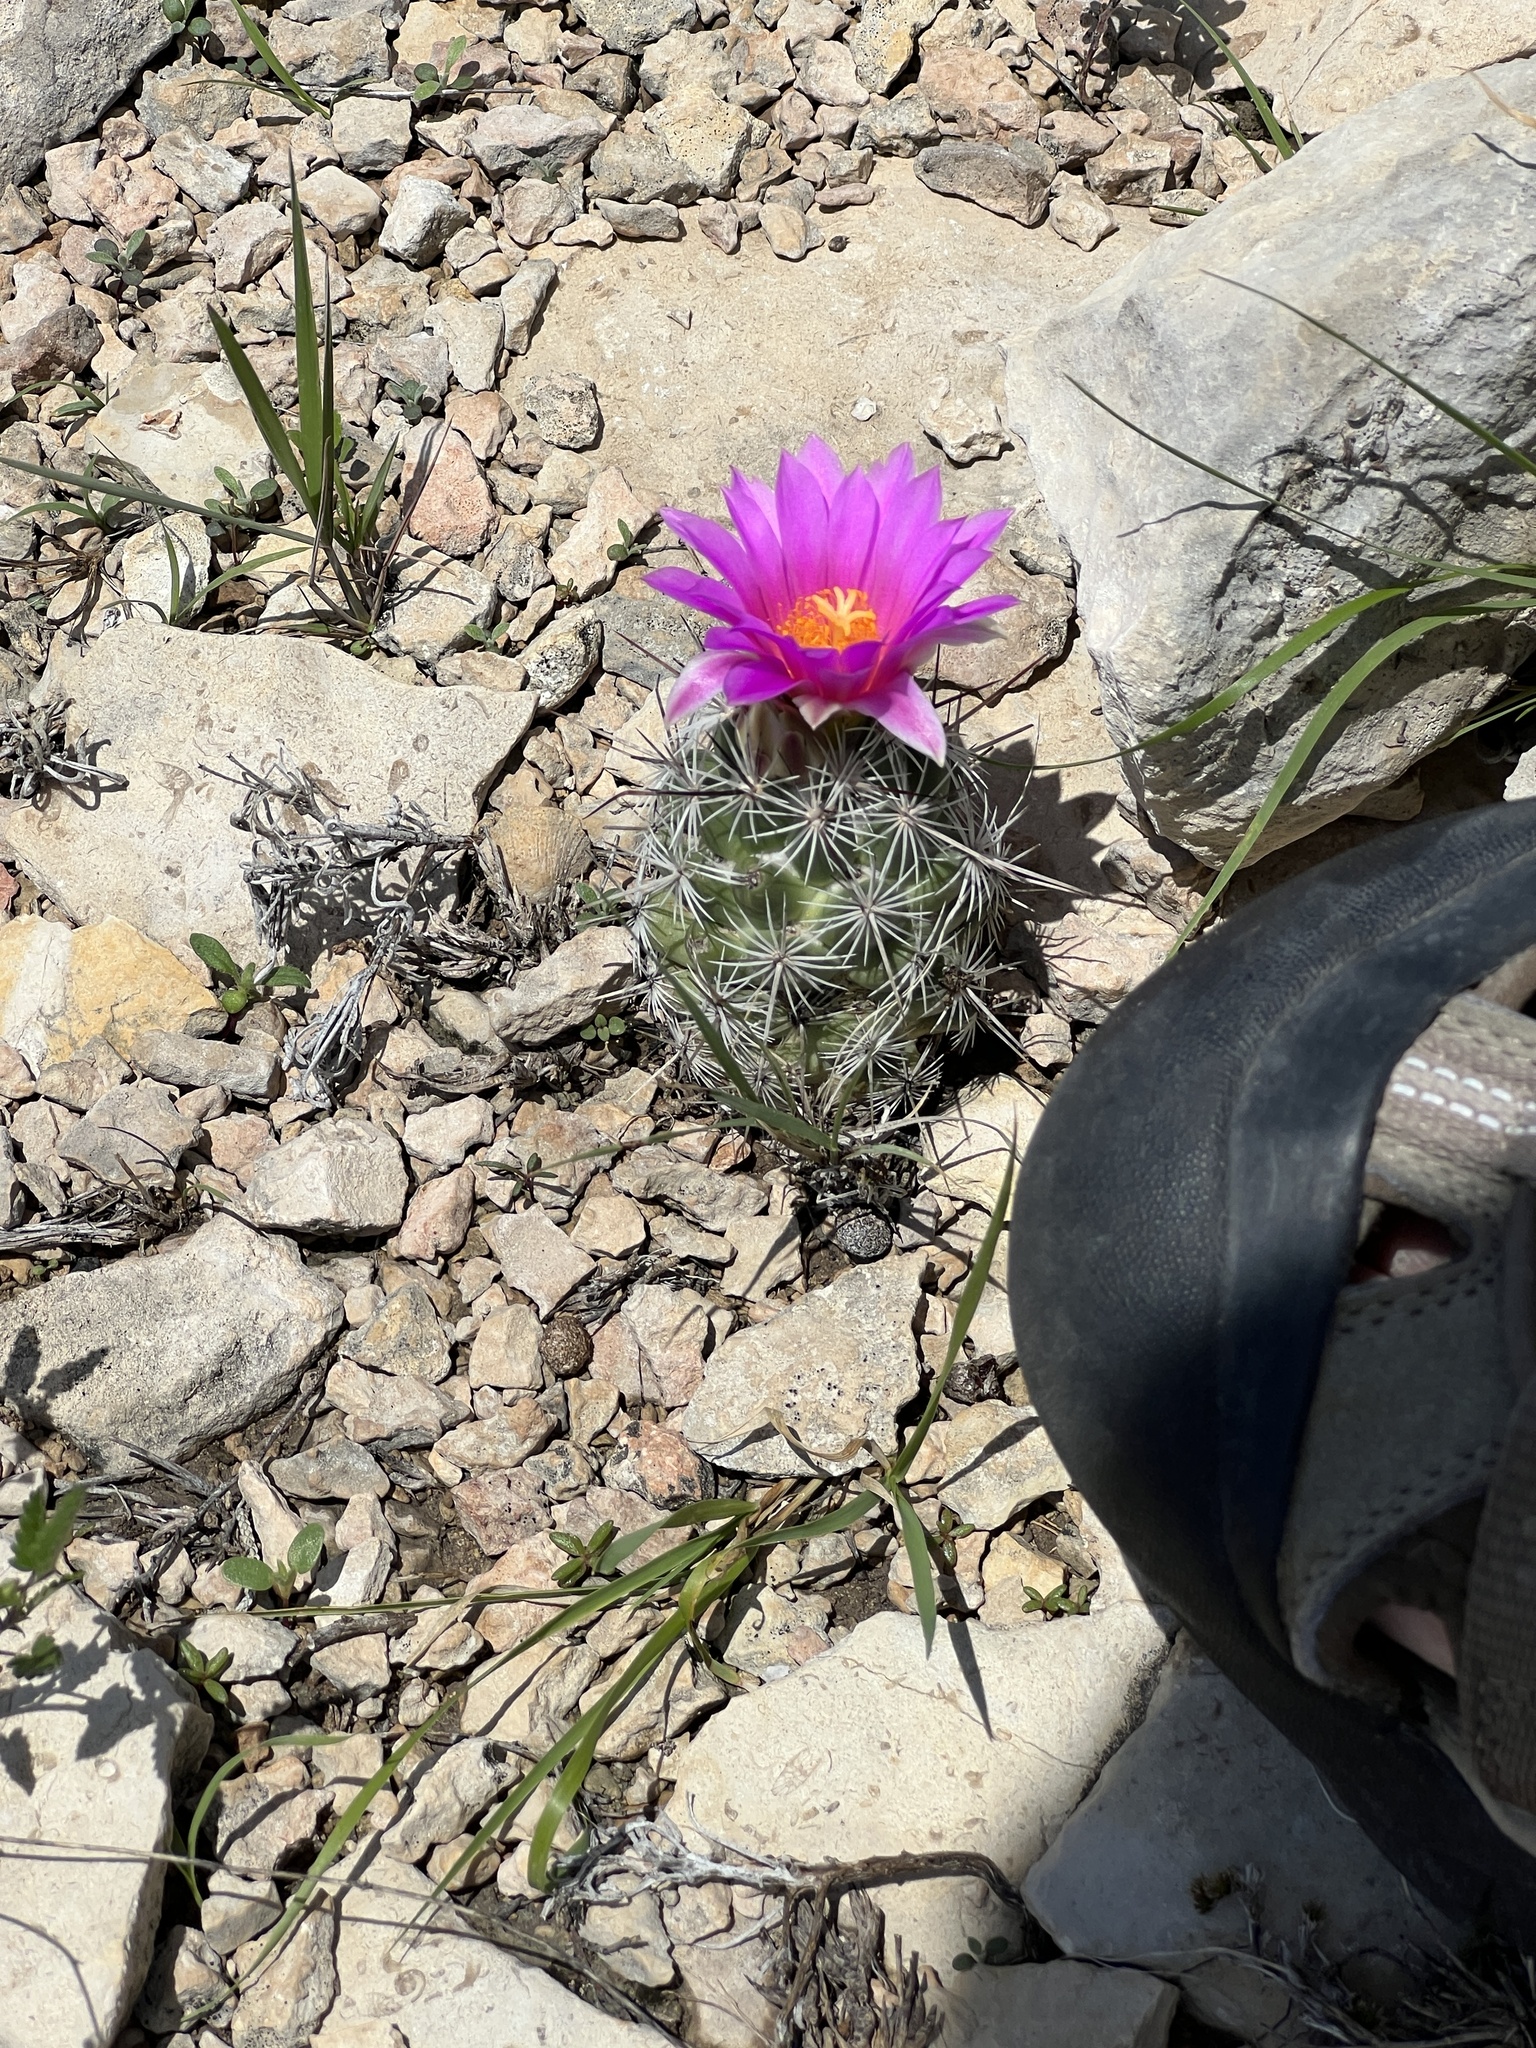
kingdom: Plantae
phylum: Tracheophyta
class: Magnoliopsida
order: Caryophyllales
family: Cactaceae
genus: Cochemiea
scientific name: Cochemiea conoidea
